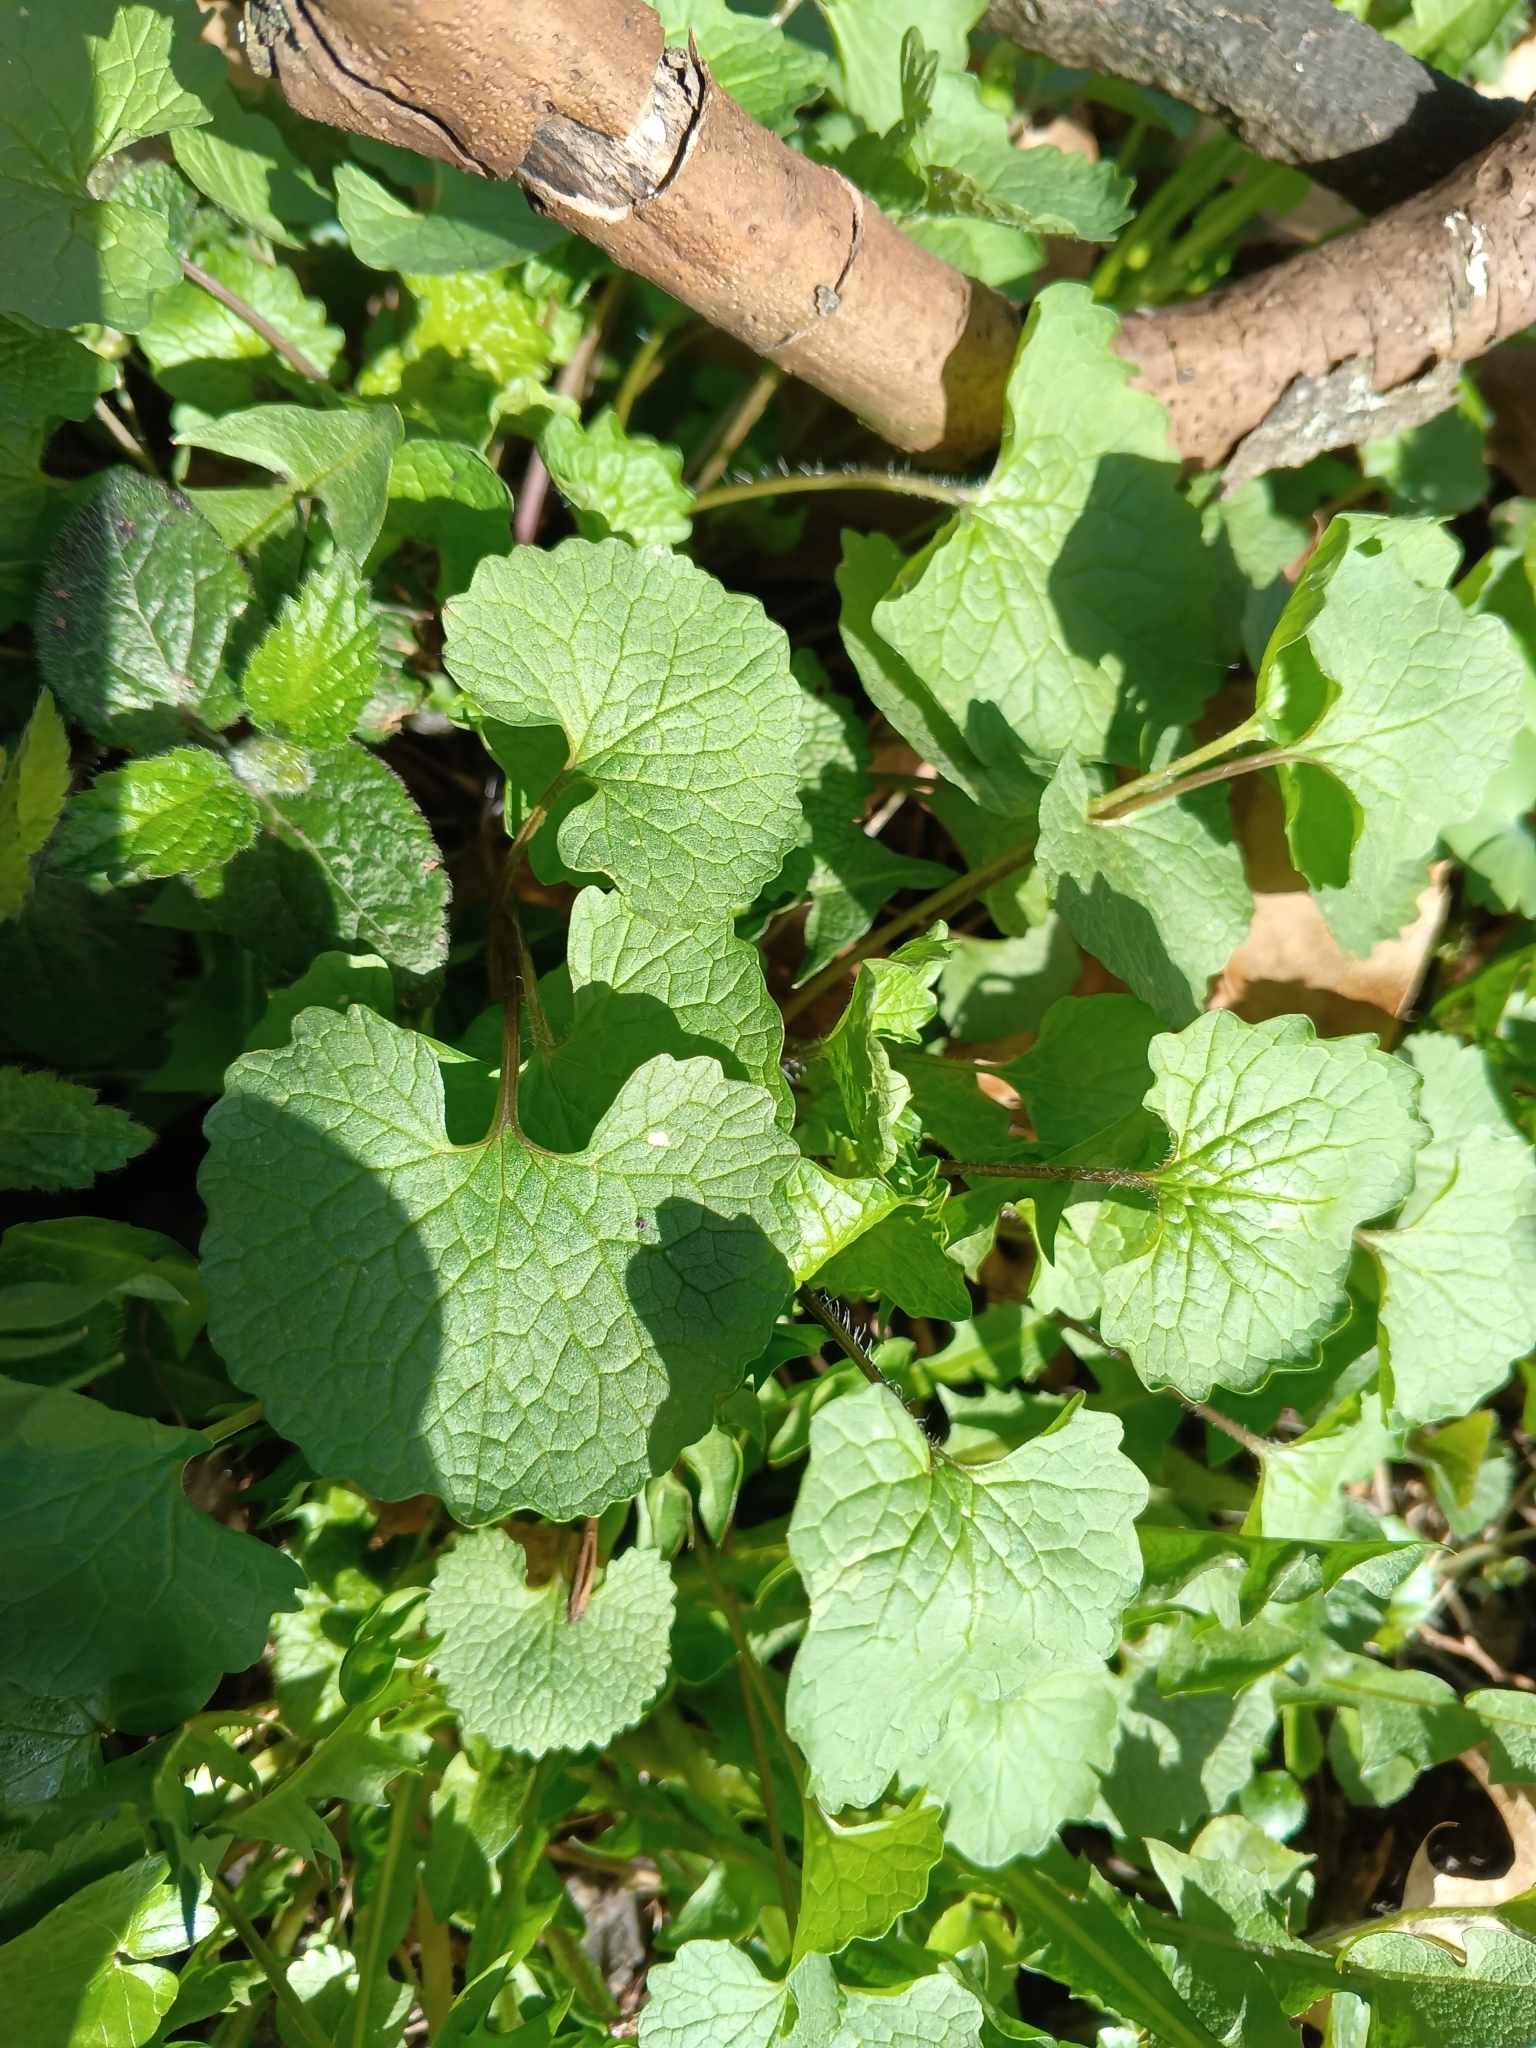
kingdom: Plantae
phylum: Tracheophyta
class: Magnoliopsida
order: Brassicales
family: Brassicaceae
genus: Alliaria
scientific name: Alliaria petiolata
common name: Garlic mustard
